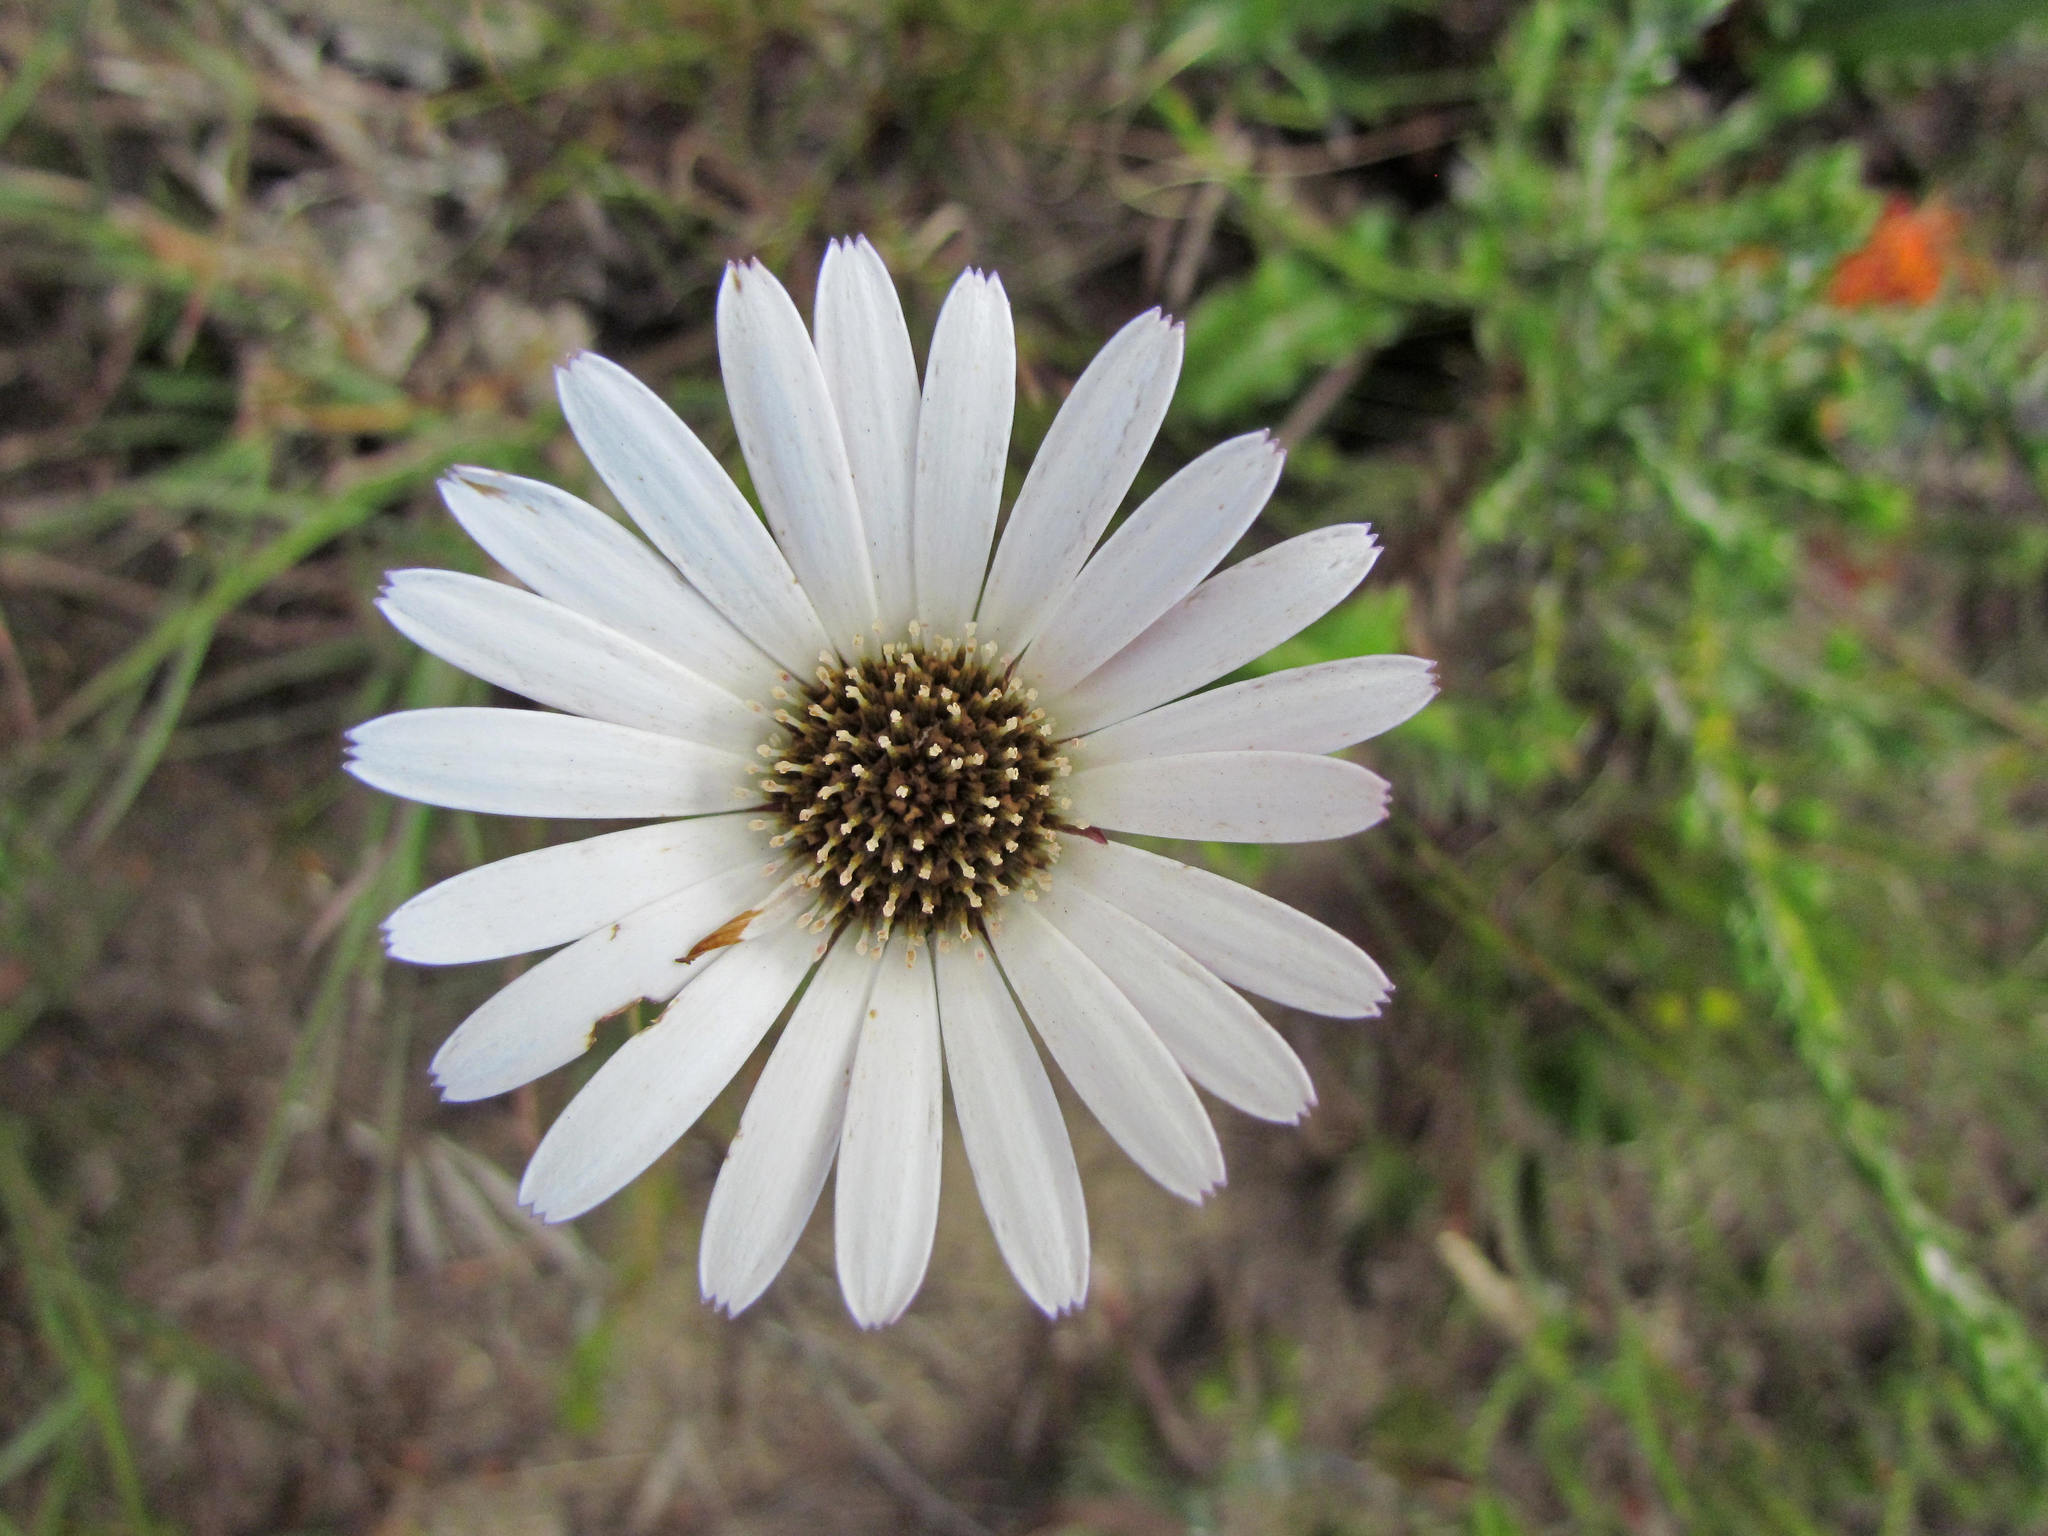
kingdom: Plantae
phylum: Tracheophyta
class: Magnoliopsida
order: Asterales
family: Asteraceae
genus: Gerbera
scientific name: Gerbera serrata
